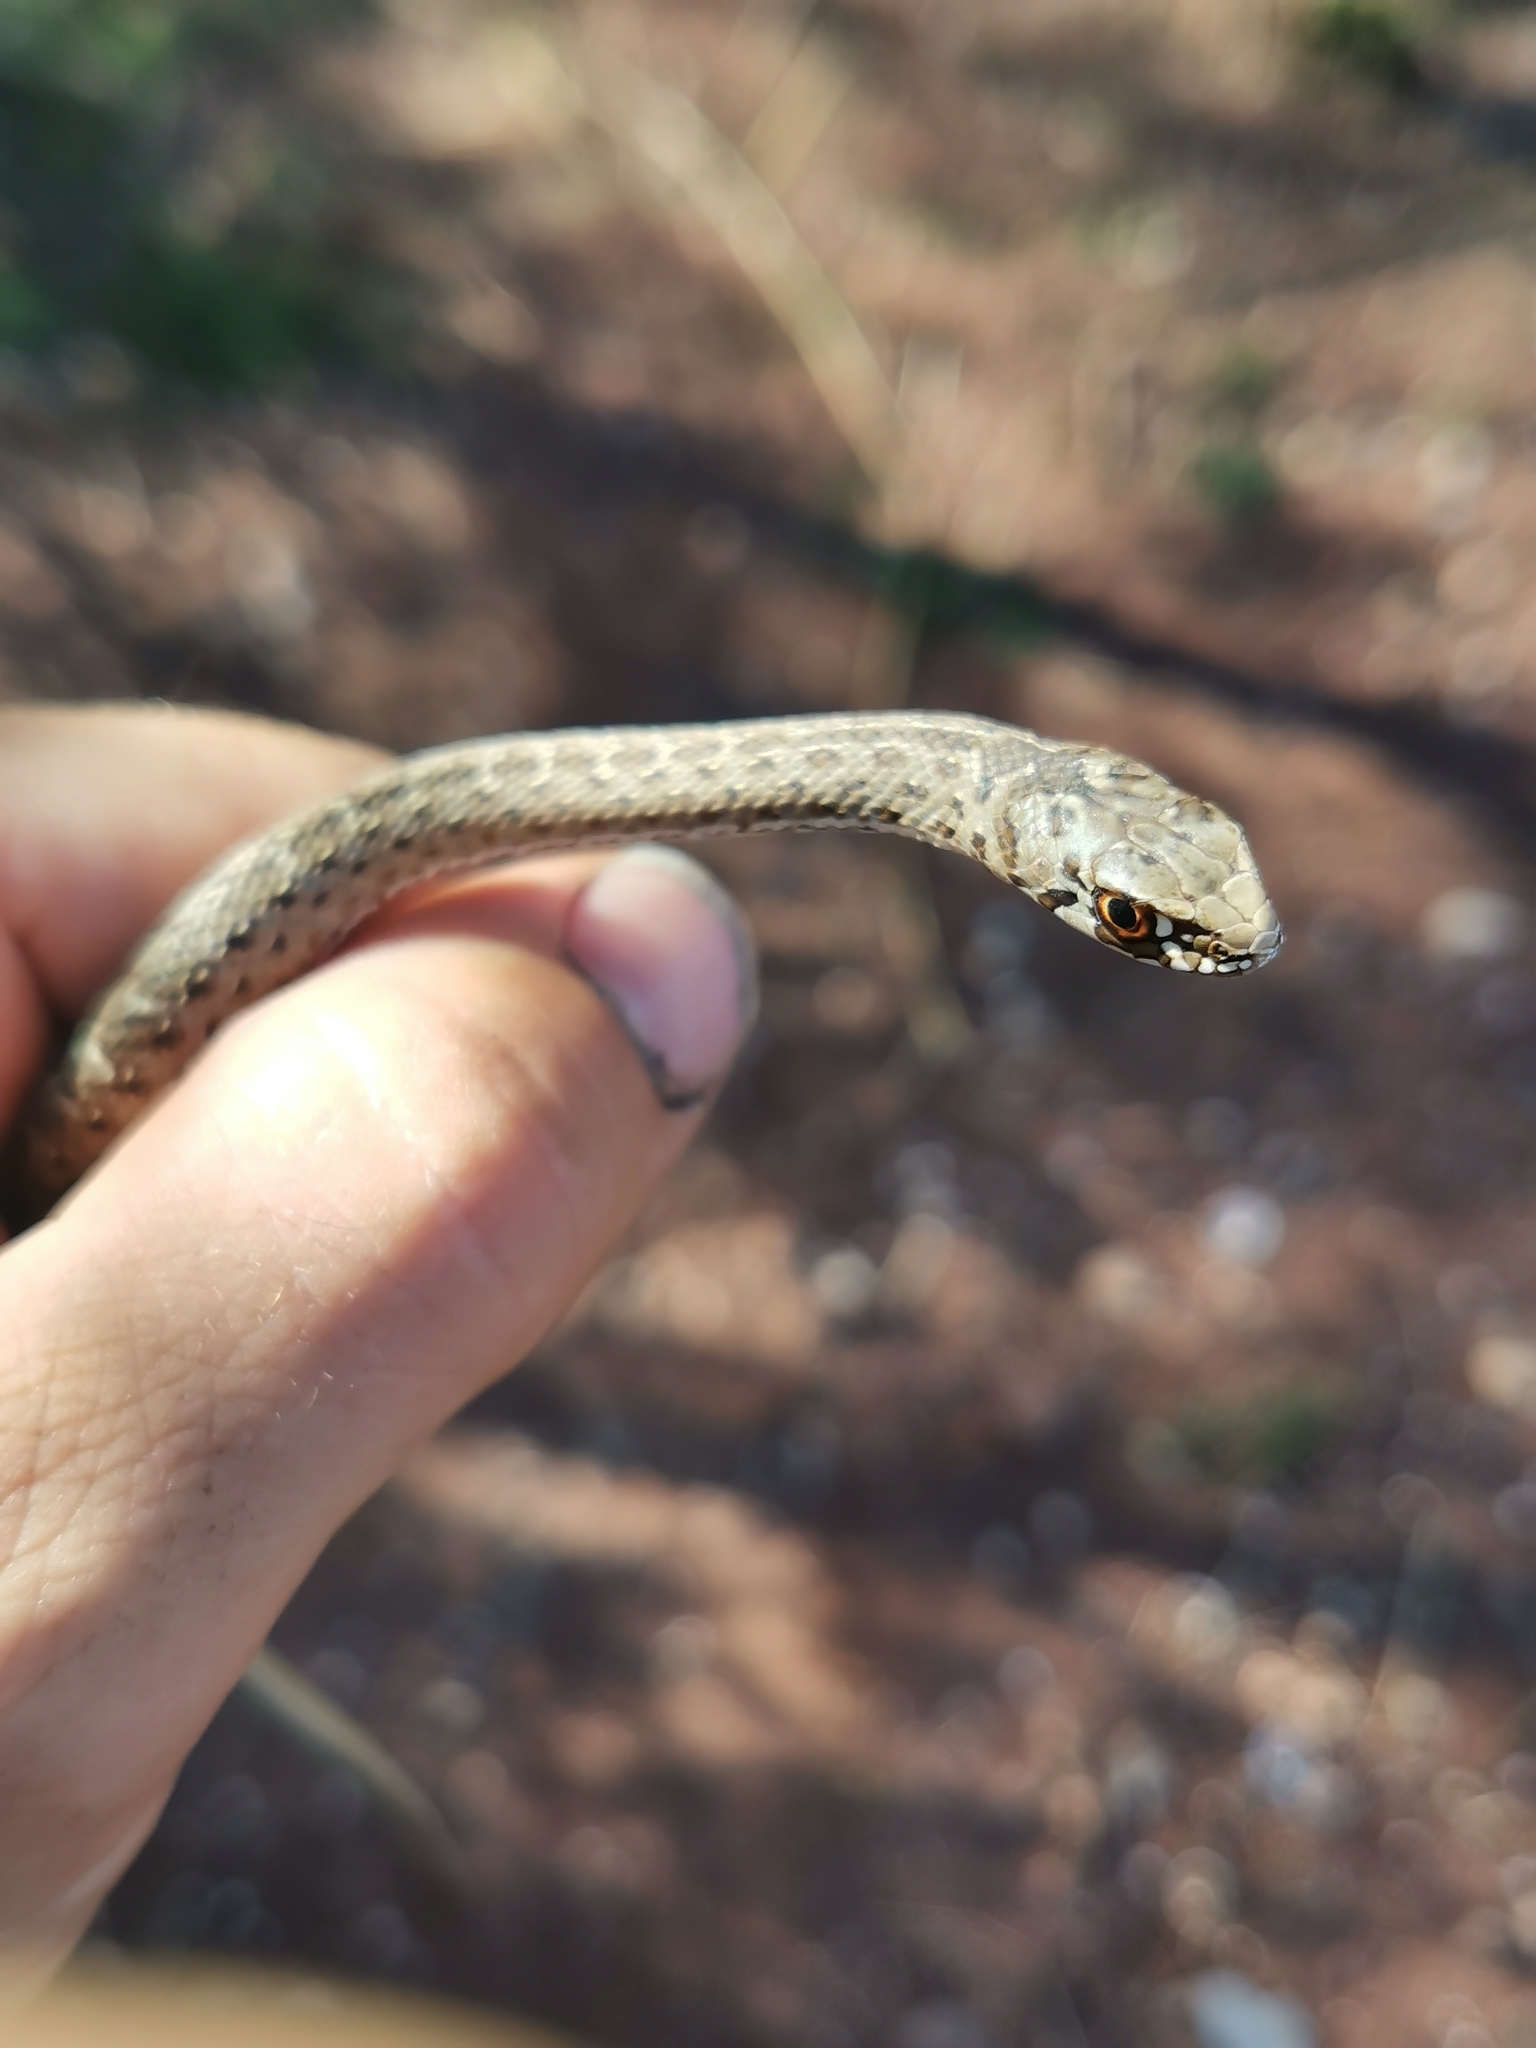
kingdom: Animalia
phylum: Chordata
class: Squamata
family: Psammophiidae
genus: Malpolon
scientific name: Malpolon monspessulanus
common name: Montpellier snake
